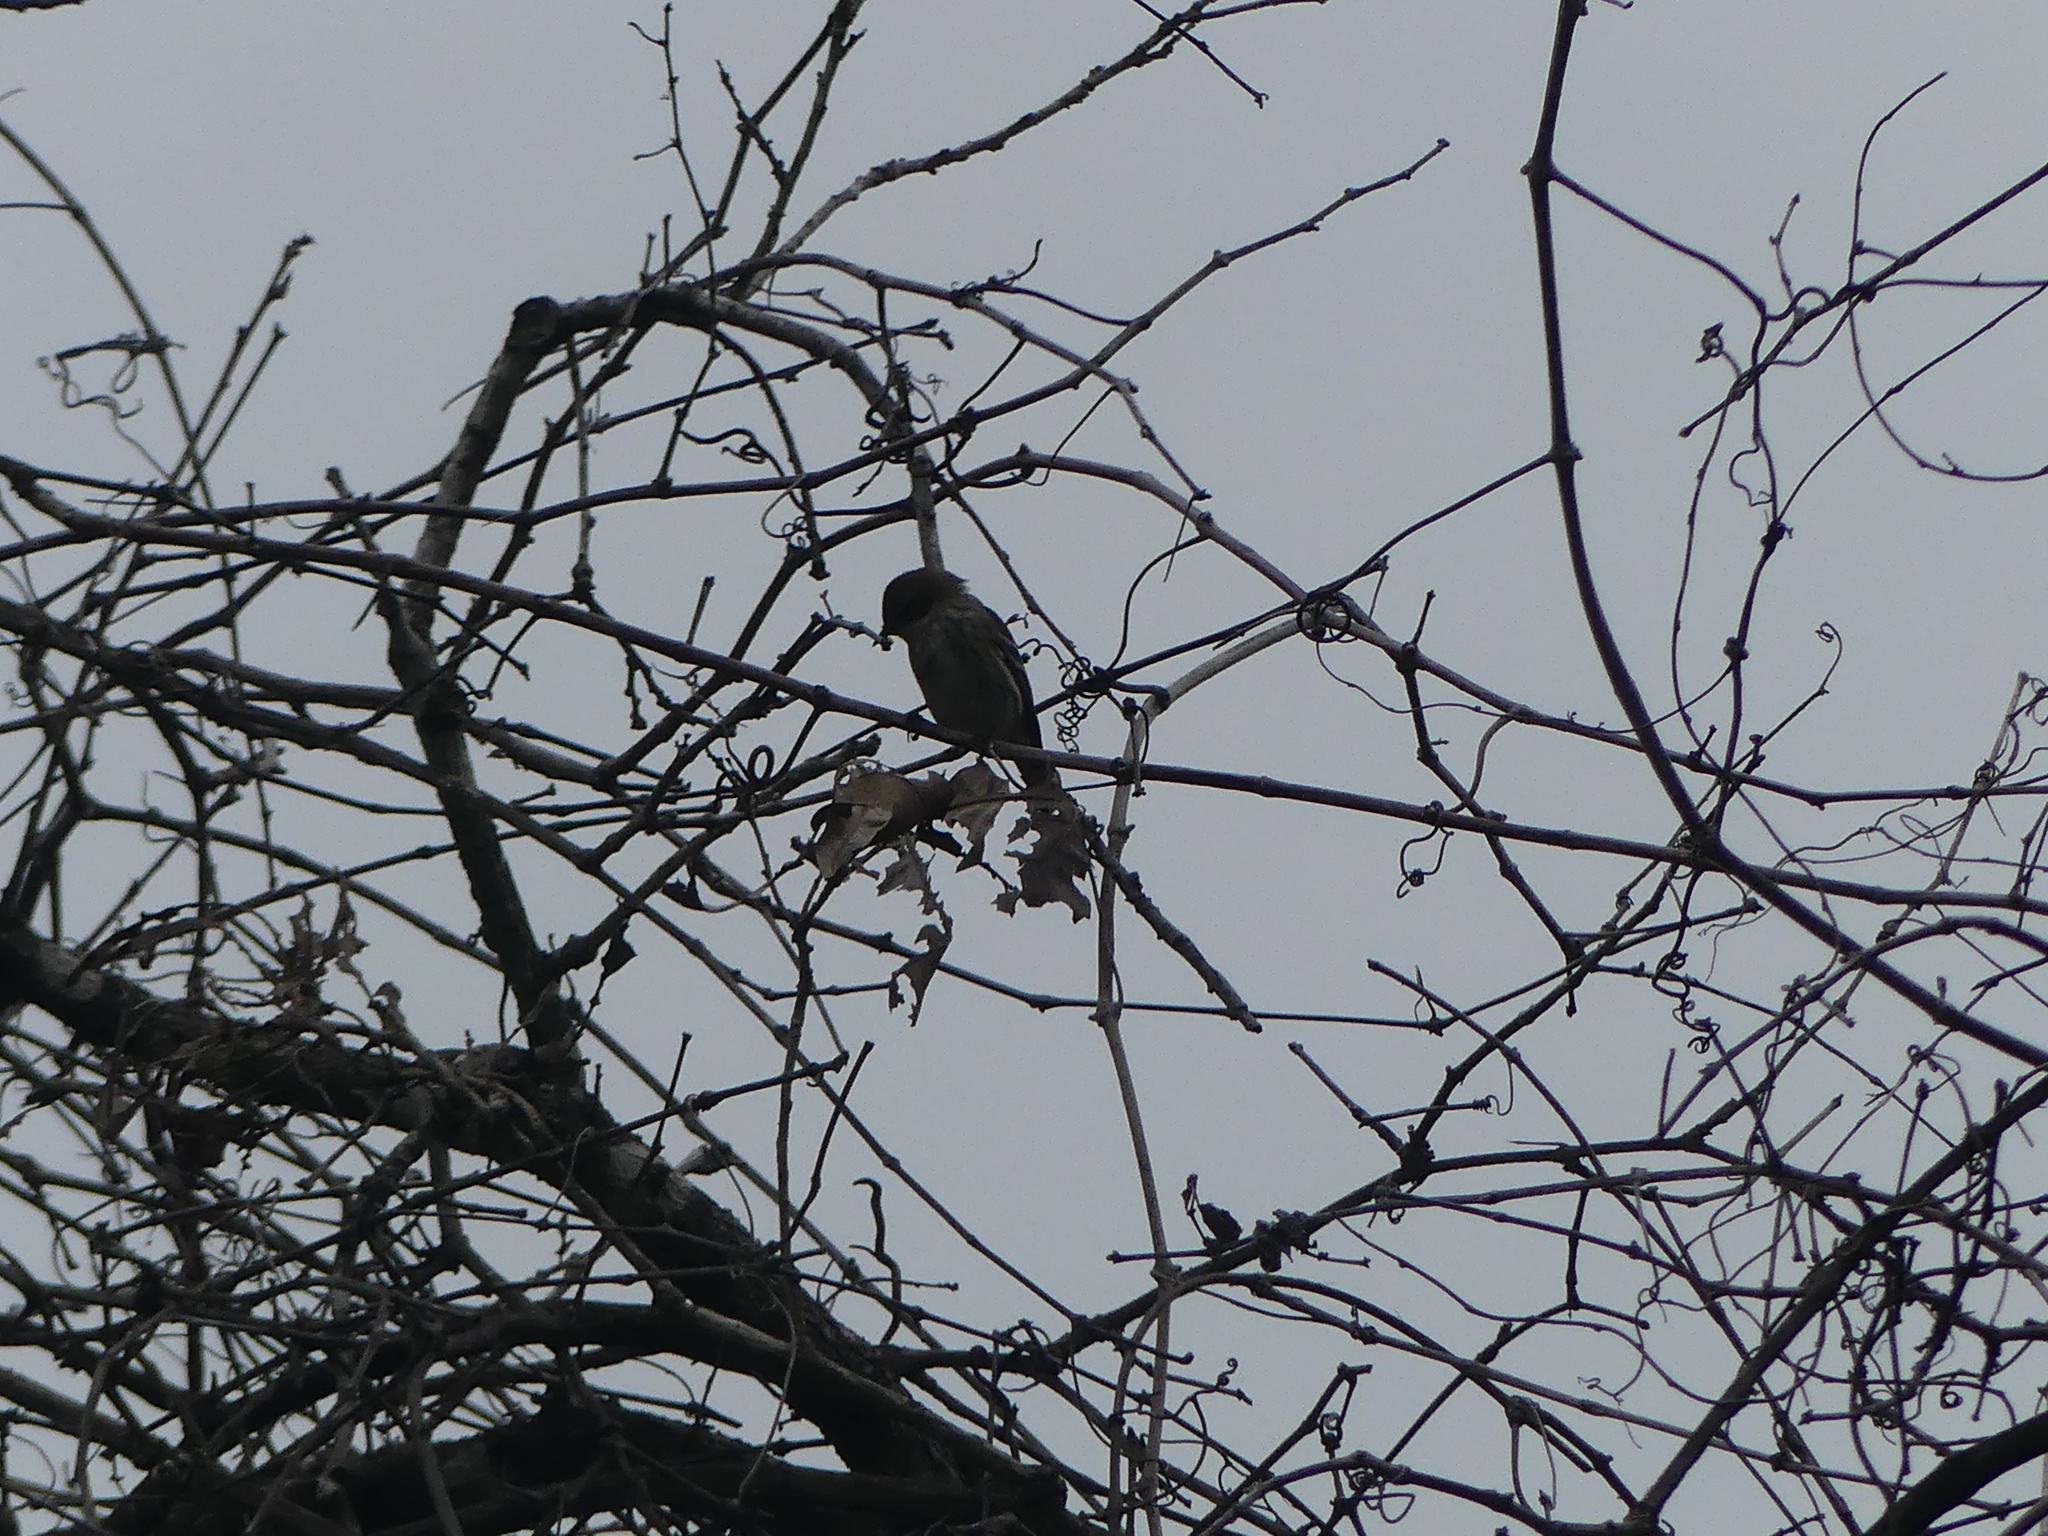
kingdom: Animalia
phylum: Chordata
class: Aves
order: Passeriformes
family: Parulidae
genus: Setophaga
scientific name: Setophaga coronata
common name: Myrtle warbler
